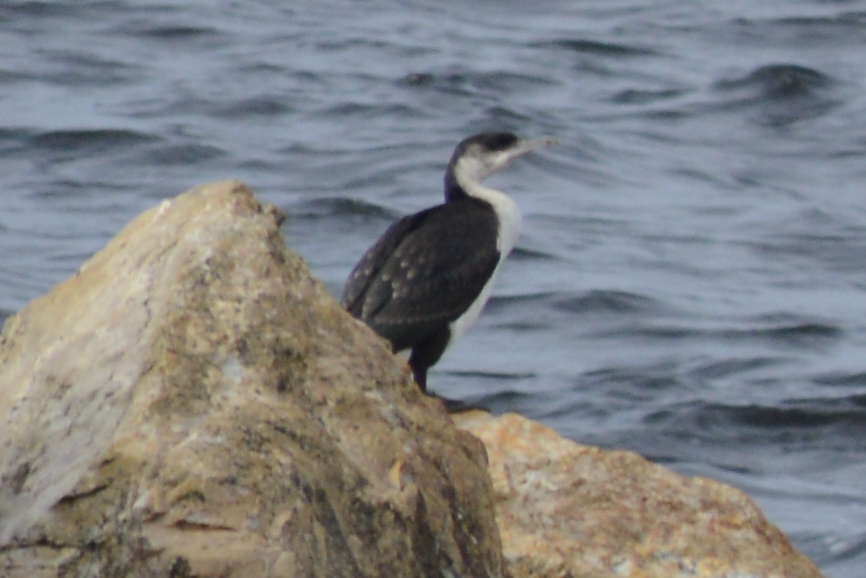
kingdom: Animalia
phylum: Chordata
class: Aves
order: Suliformes
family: Phalacrocoracidae
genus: Phalacrocorax
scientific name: Phalacrocorax fuscescens
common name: Black-faced cormorant
